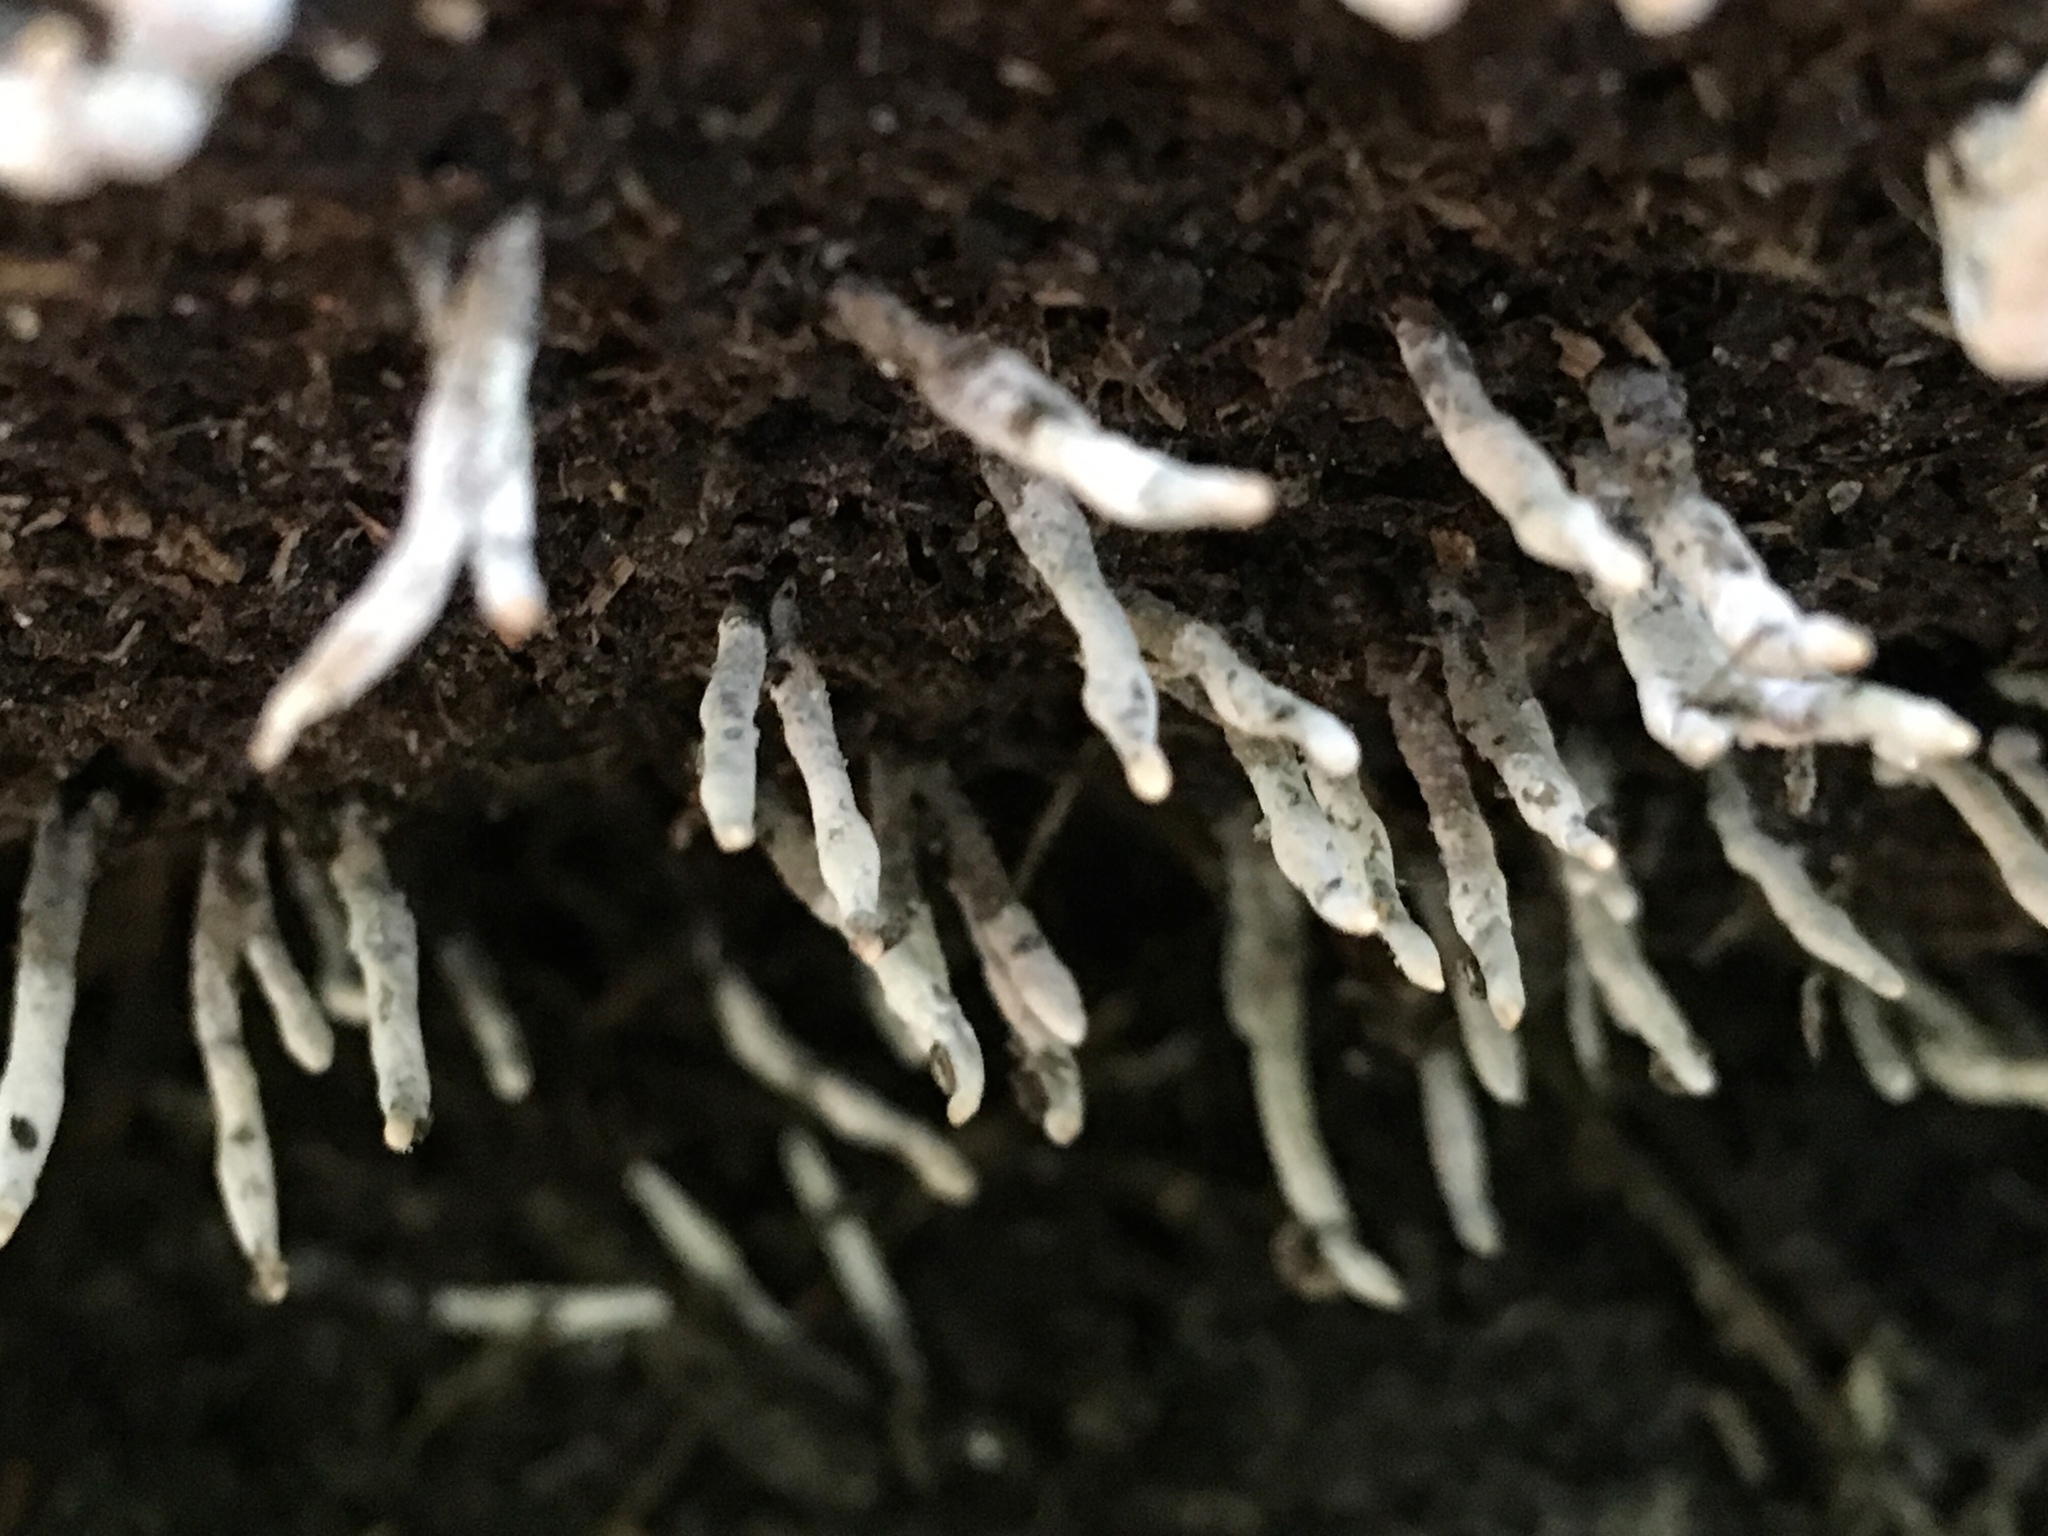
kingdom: Fungi
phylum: Ascomycota
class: Sordariomycetes
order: Xylariales
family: Xylariaceae
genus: Xylaria
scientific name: Xylaria hypoxylon
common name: Candle-snuff fungus
